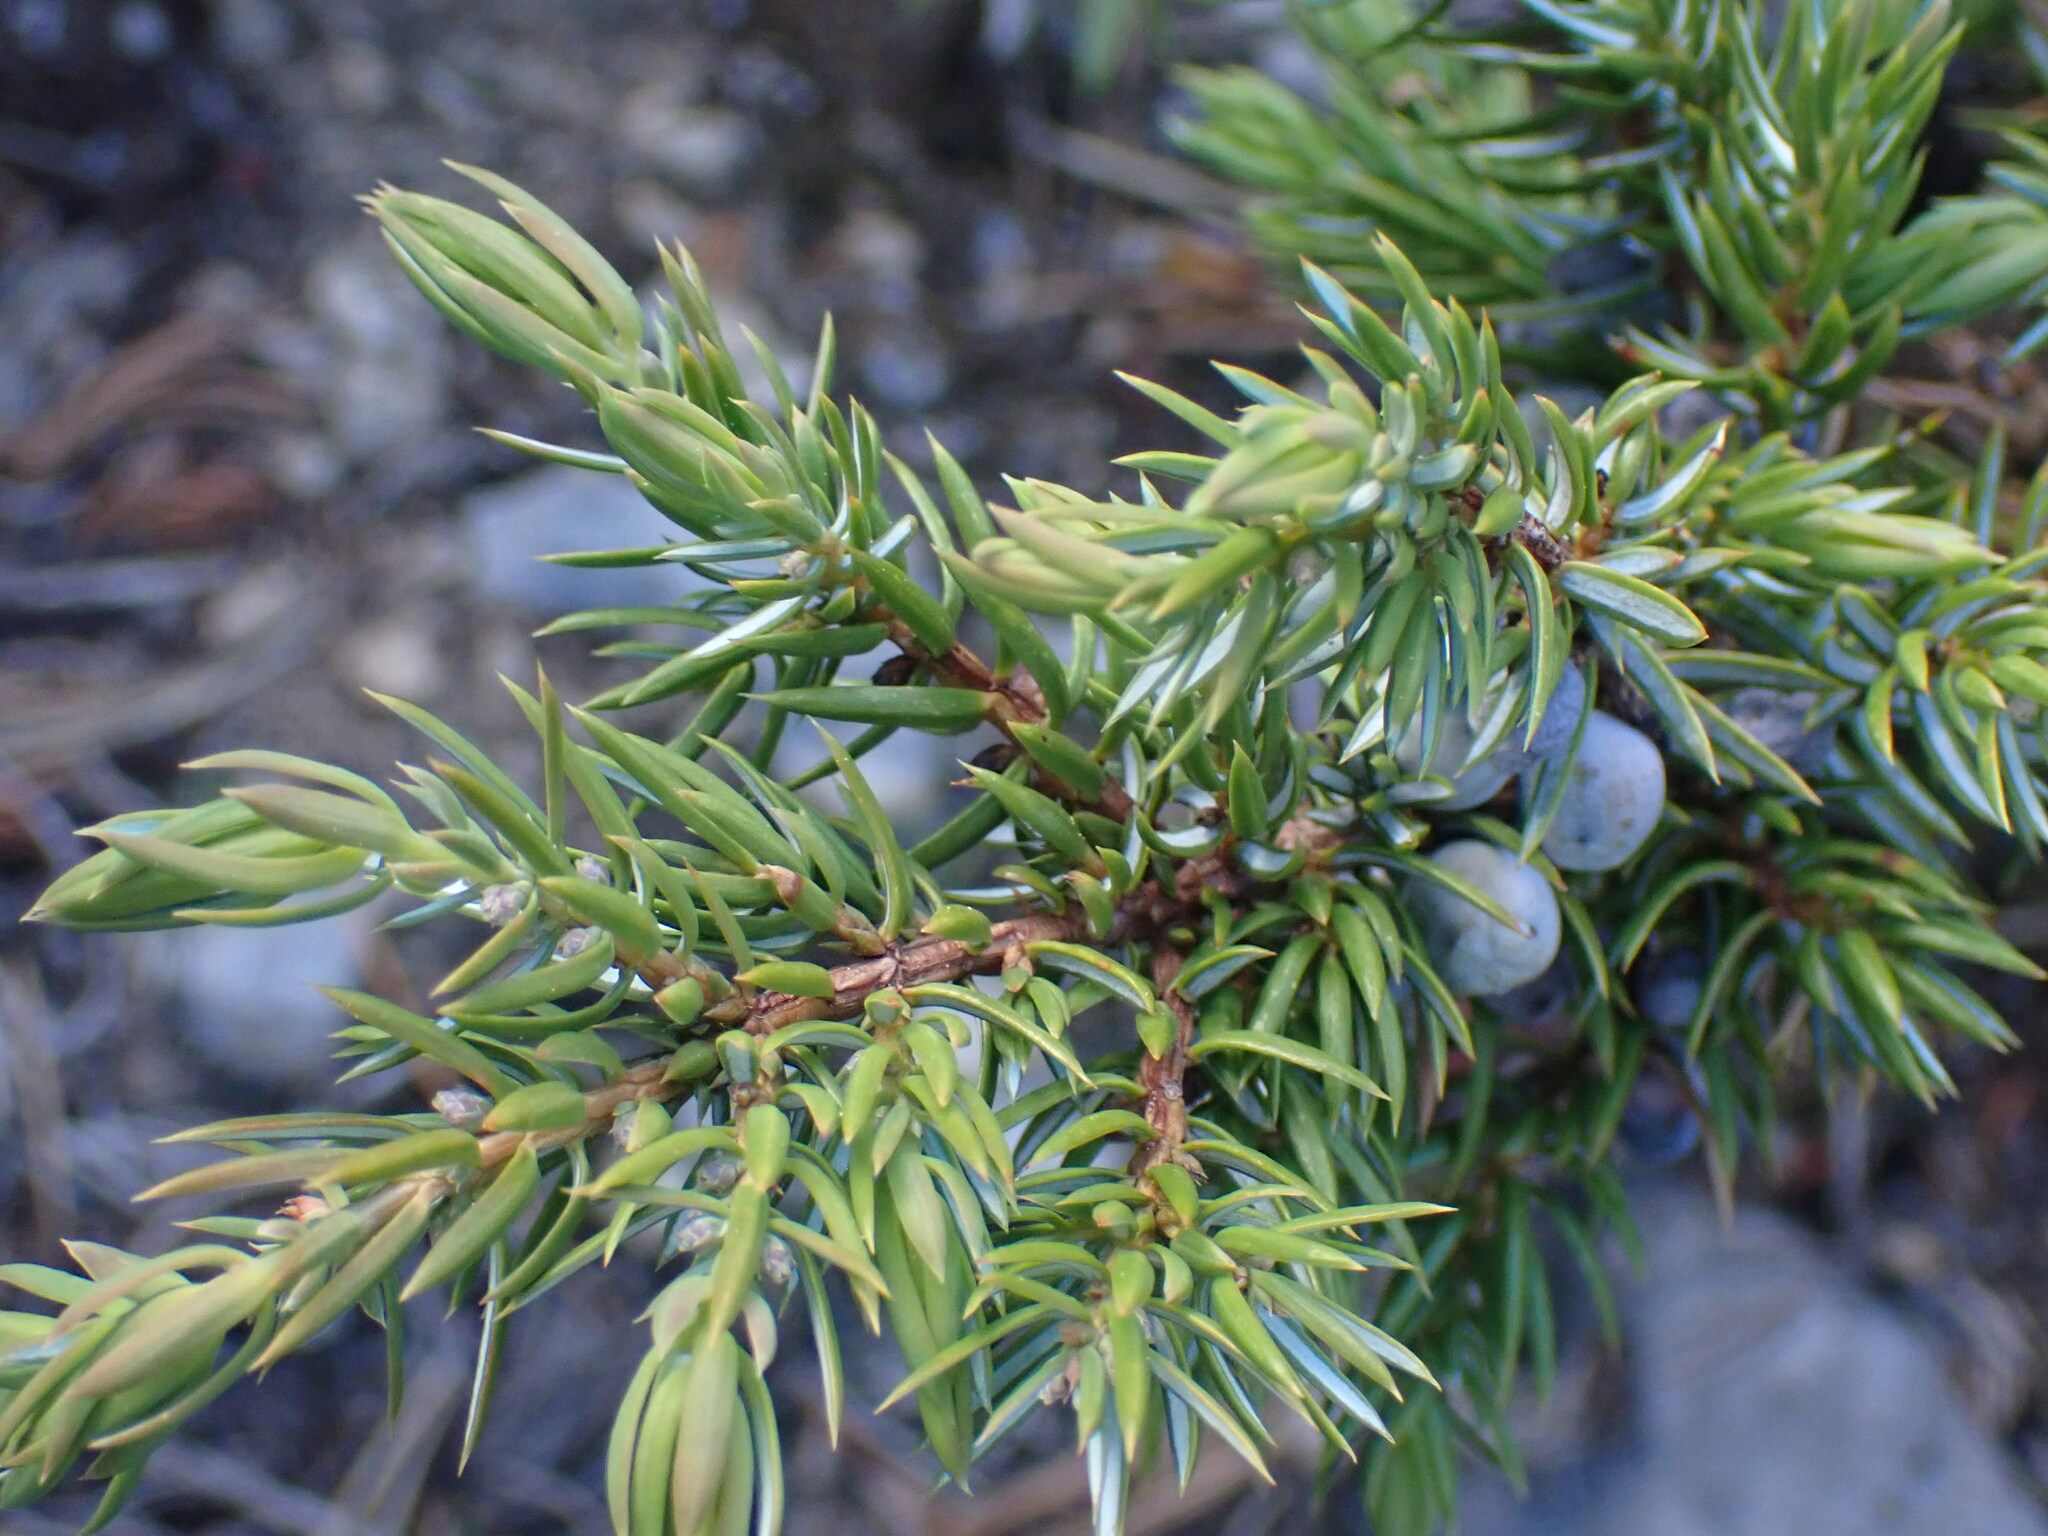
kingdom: Plantae
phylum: Tracheophyta
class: Pinopsida
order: Pinales
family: Cupressaceae
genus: Juniperus
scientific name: Juniperus communis
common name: Common juniper
